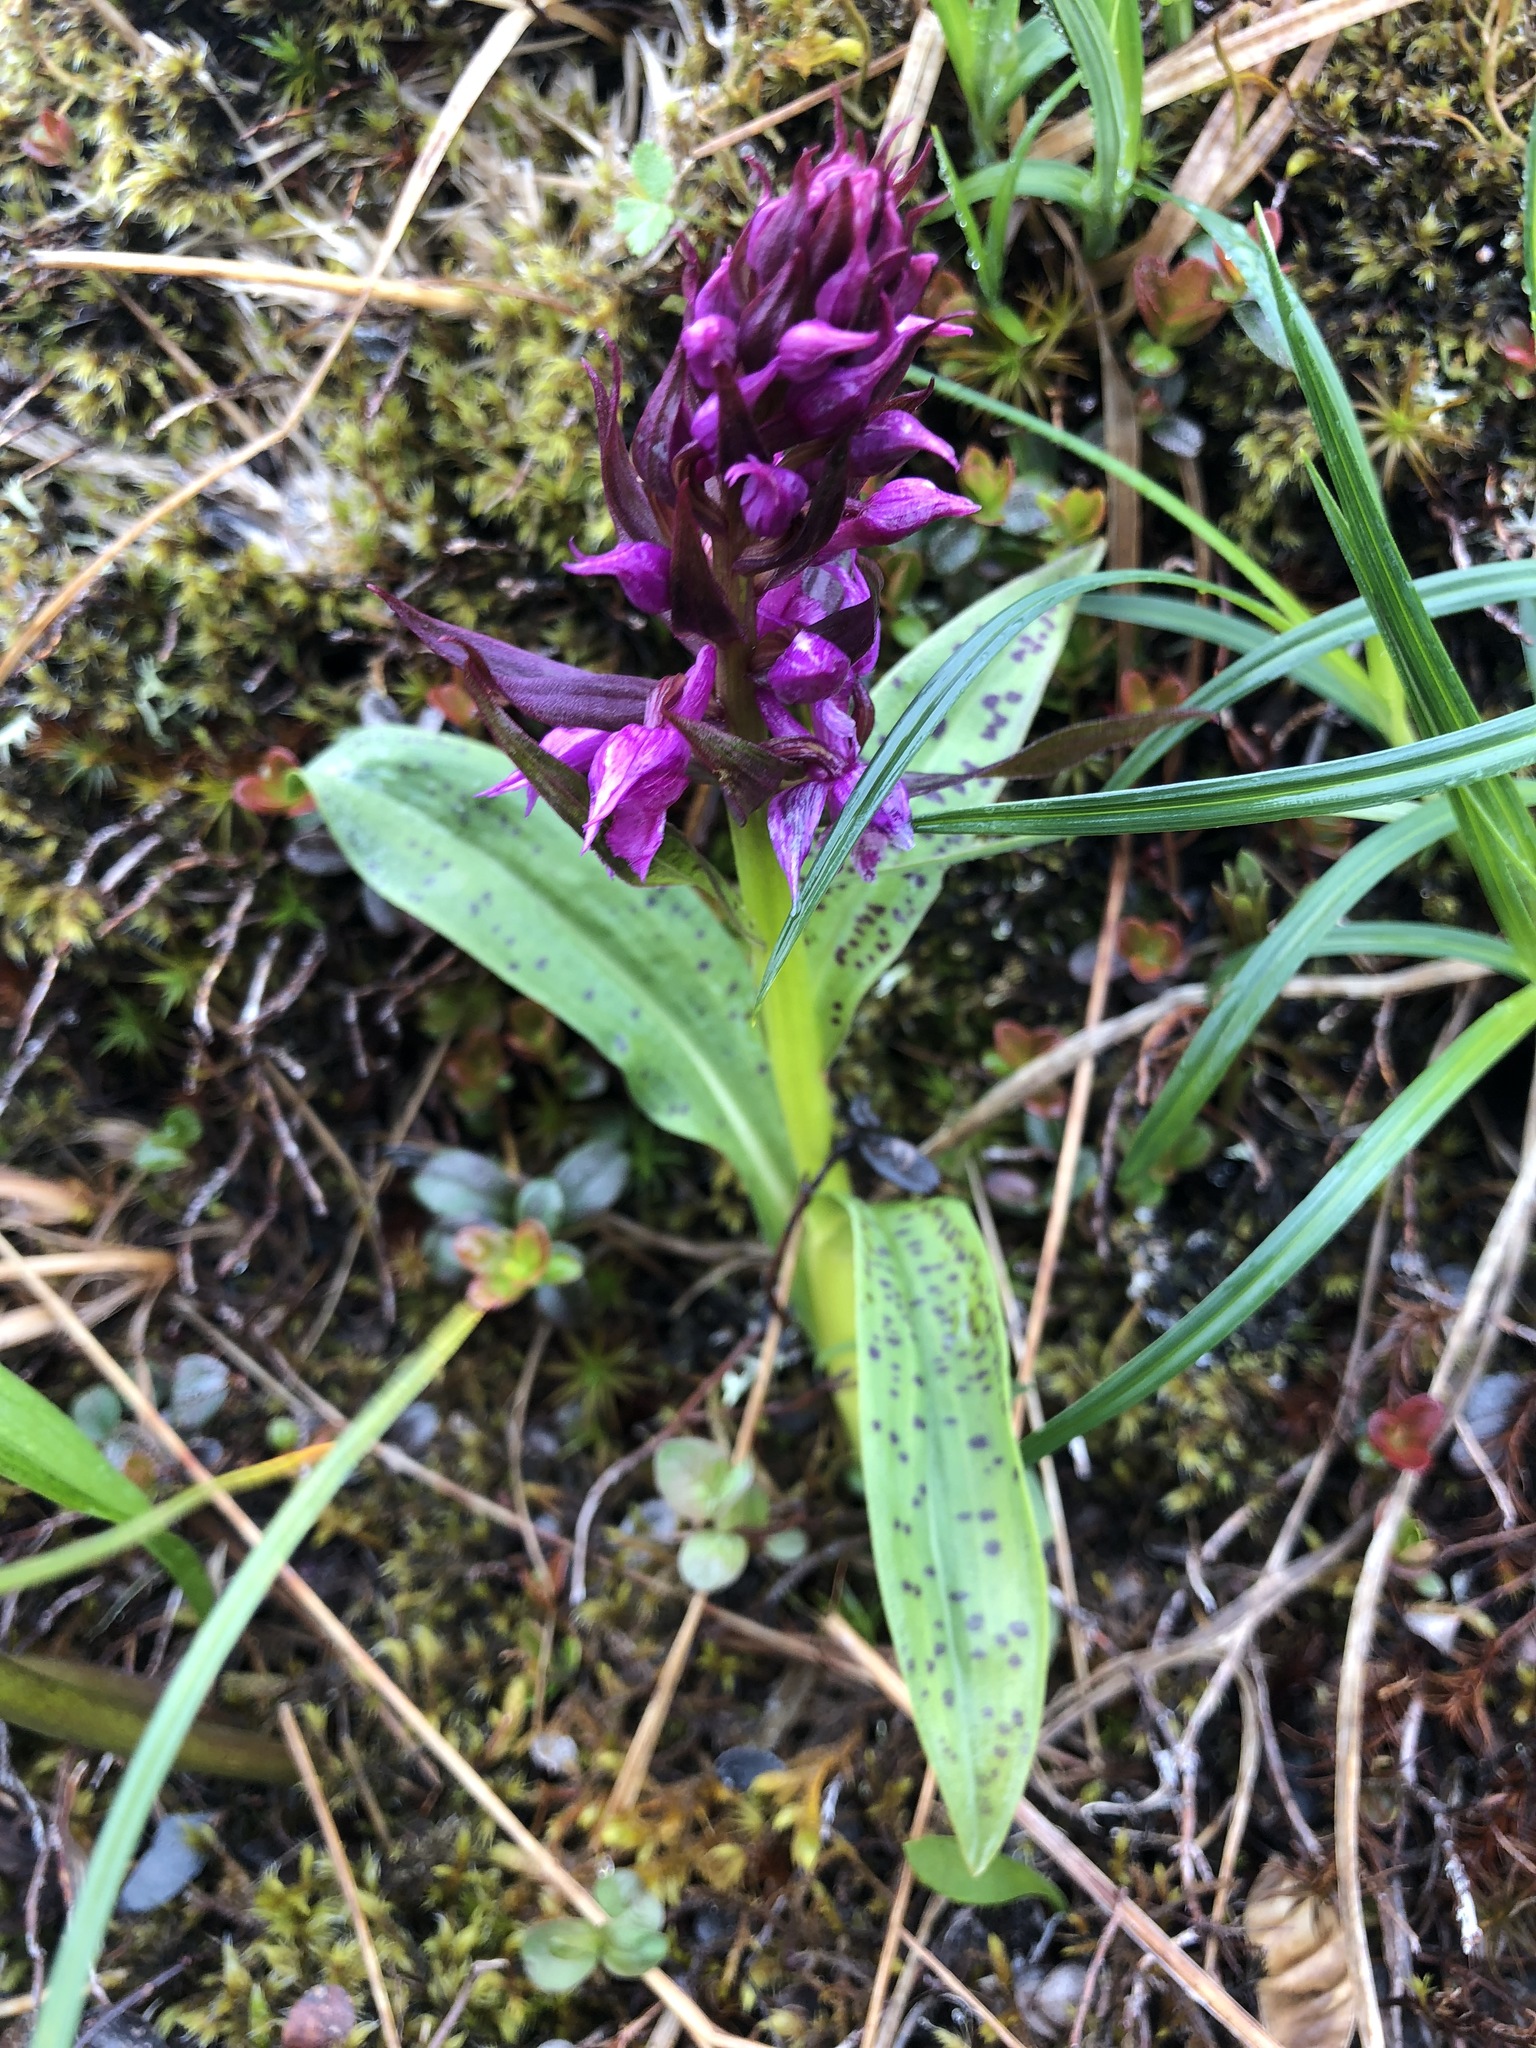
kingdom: Plantae
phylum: Tracheophyta
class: Liliopsida
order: Asparagales
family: Orchidaceae
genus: Dactylorhiza
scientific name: Dactylorhiza aristata
